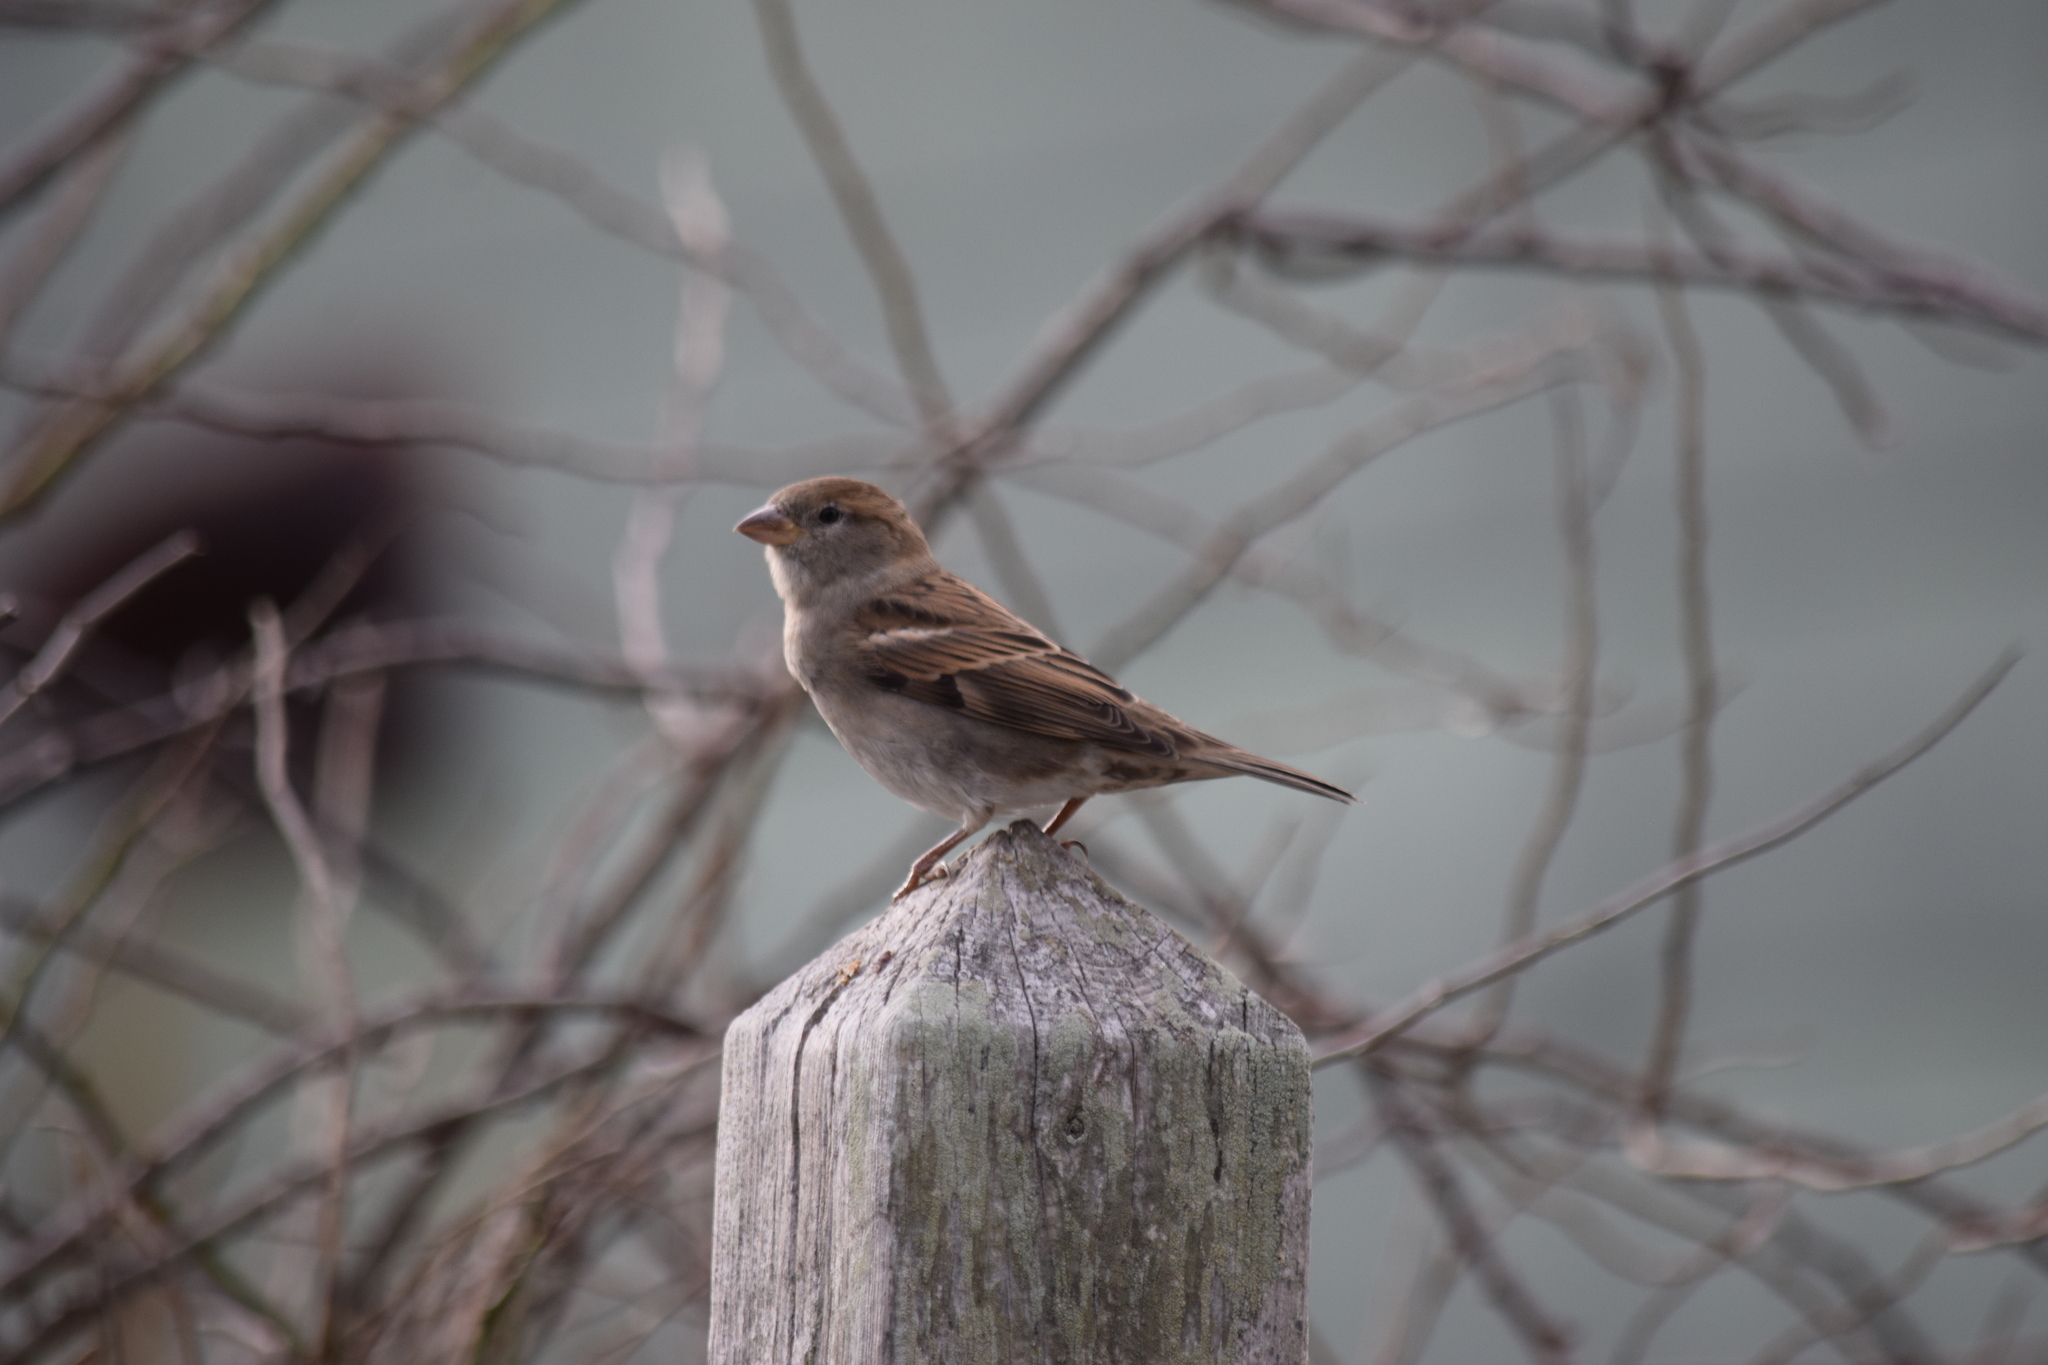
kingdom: Animalia
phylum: Chordata
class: Aves
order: Passeriformes
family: Passeridae
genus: Passer
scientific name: Passer domesticus
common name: House sparrow
